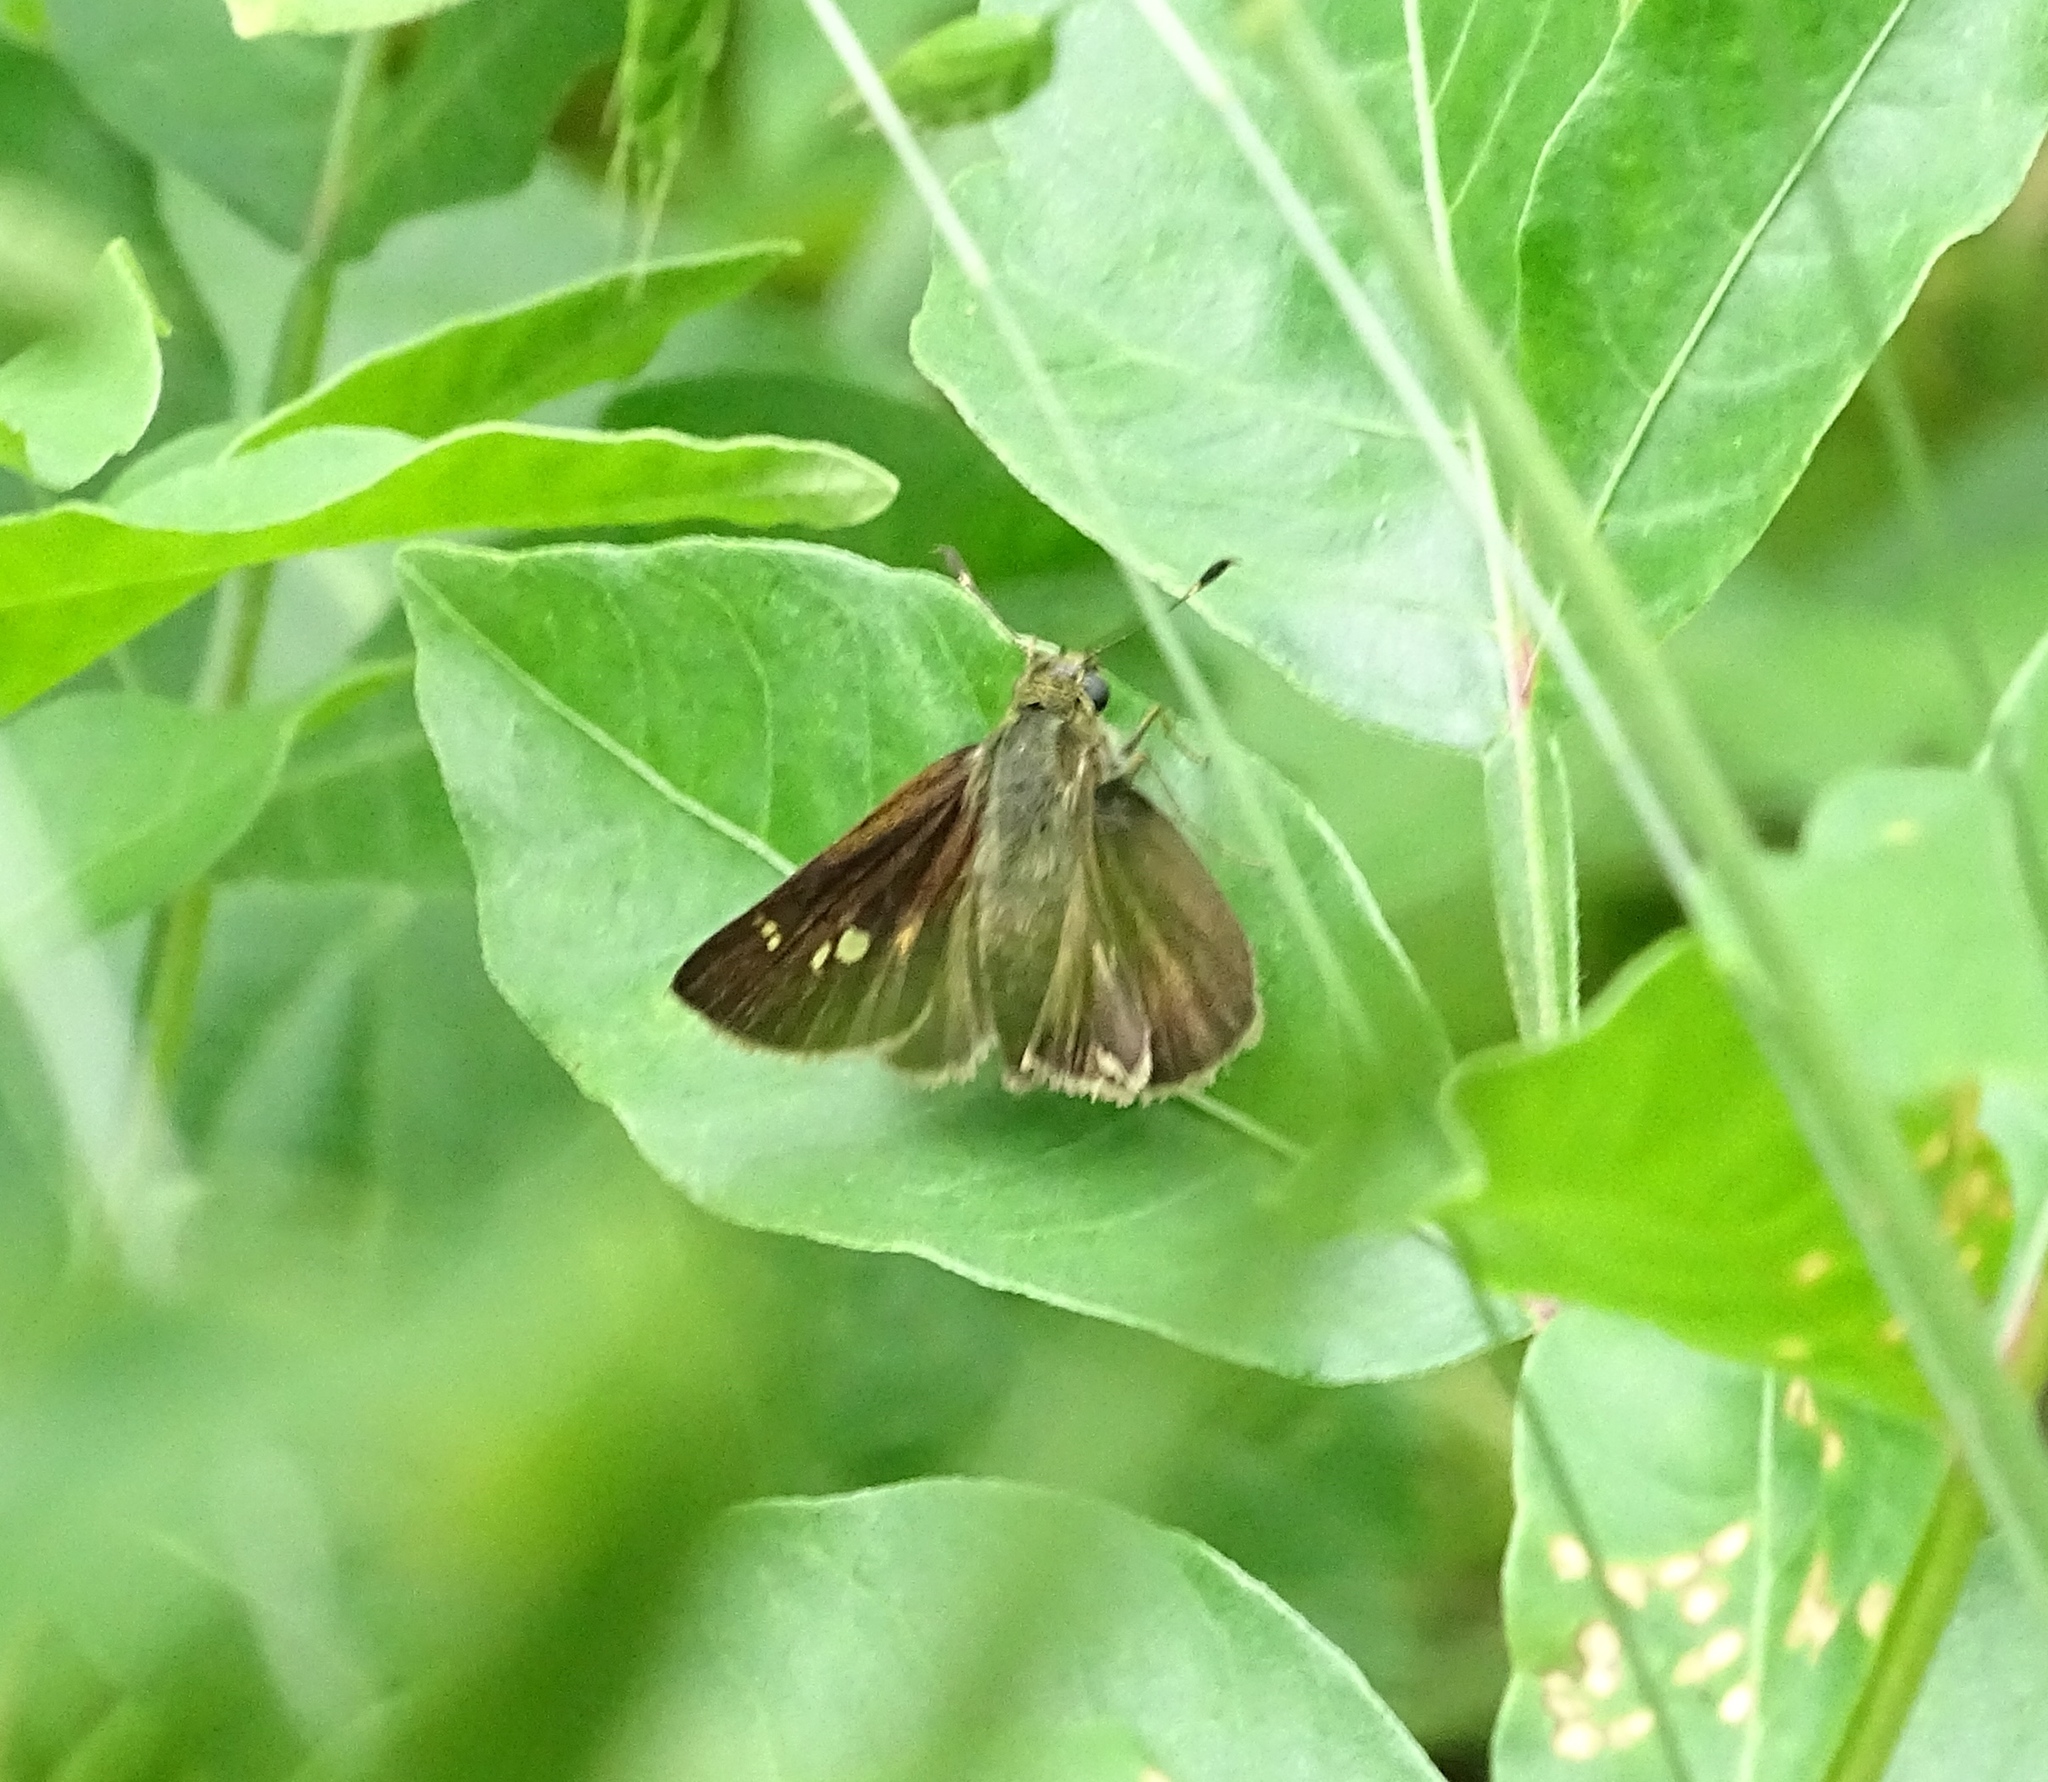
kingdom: Animalia
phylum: Arthropoda
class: Insecta
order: Lepidoptera
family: Hesperiidae
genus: Vernia
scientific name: Vernia verna
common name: Little glassywing
